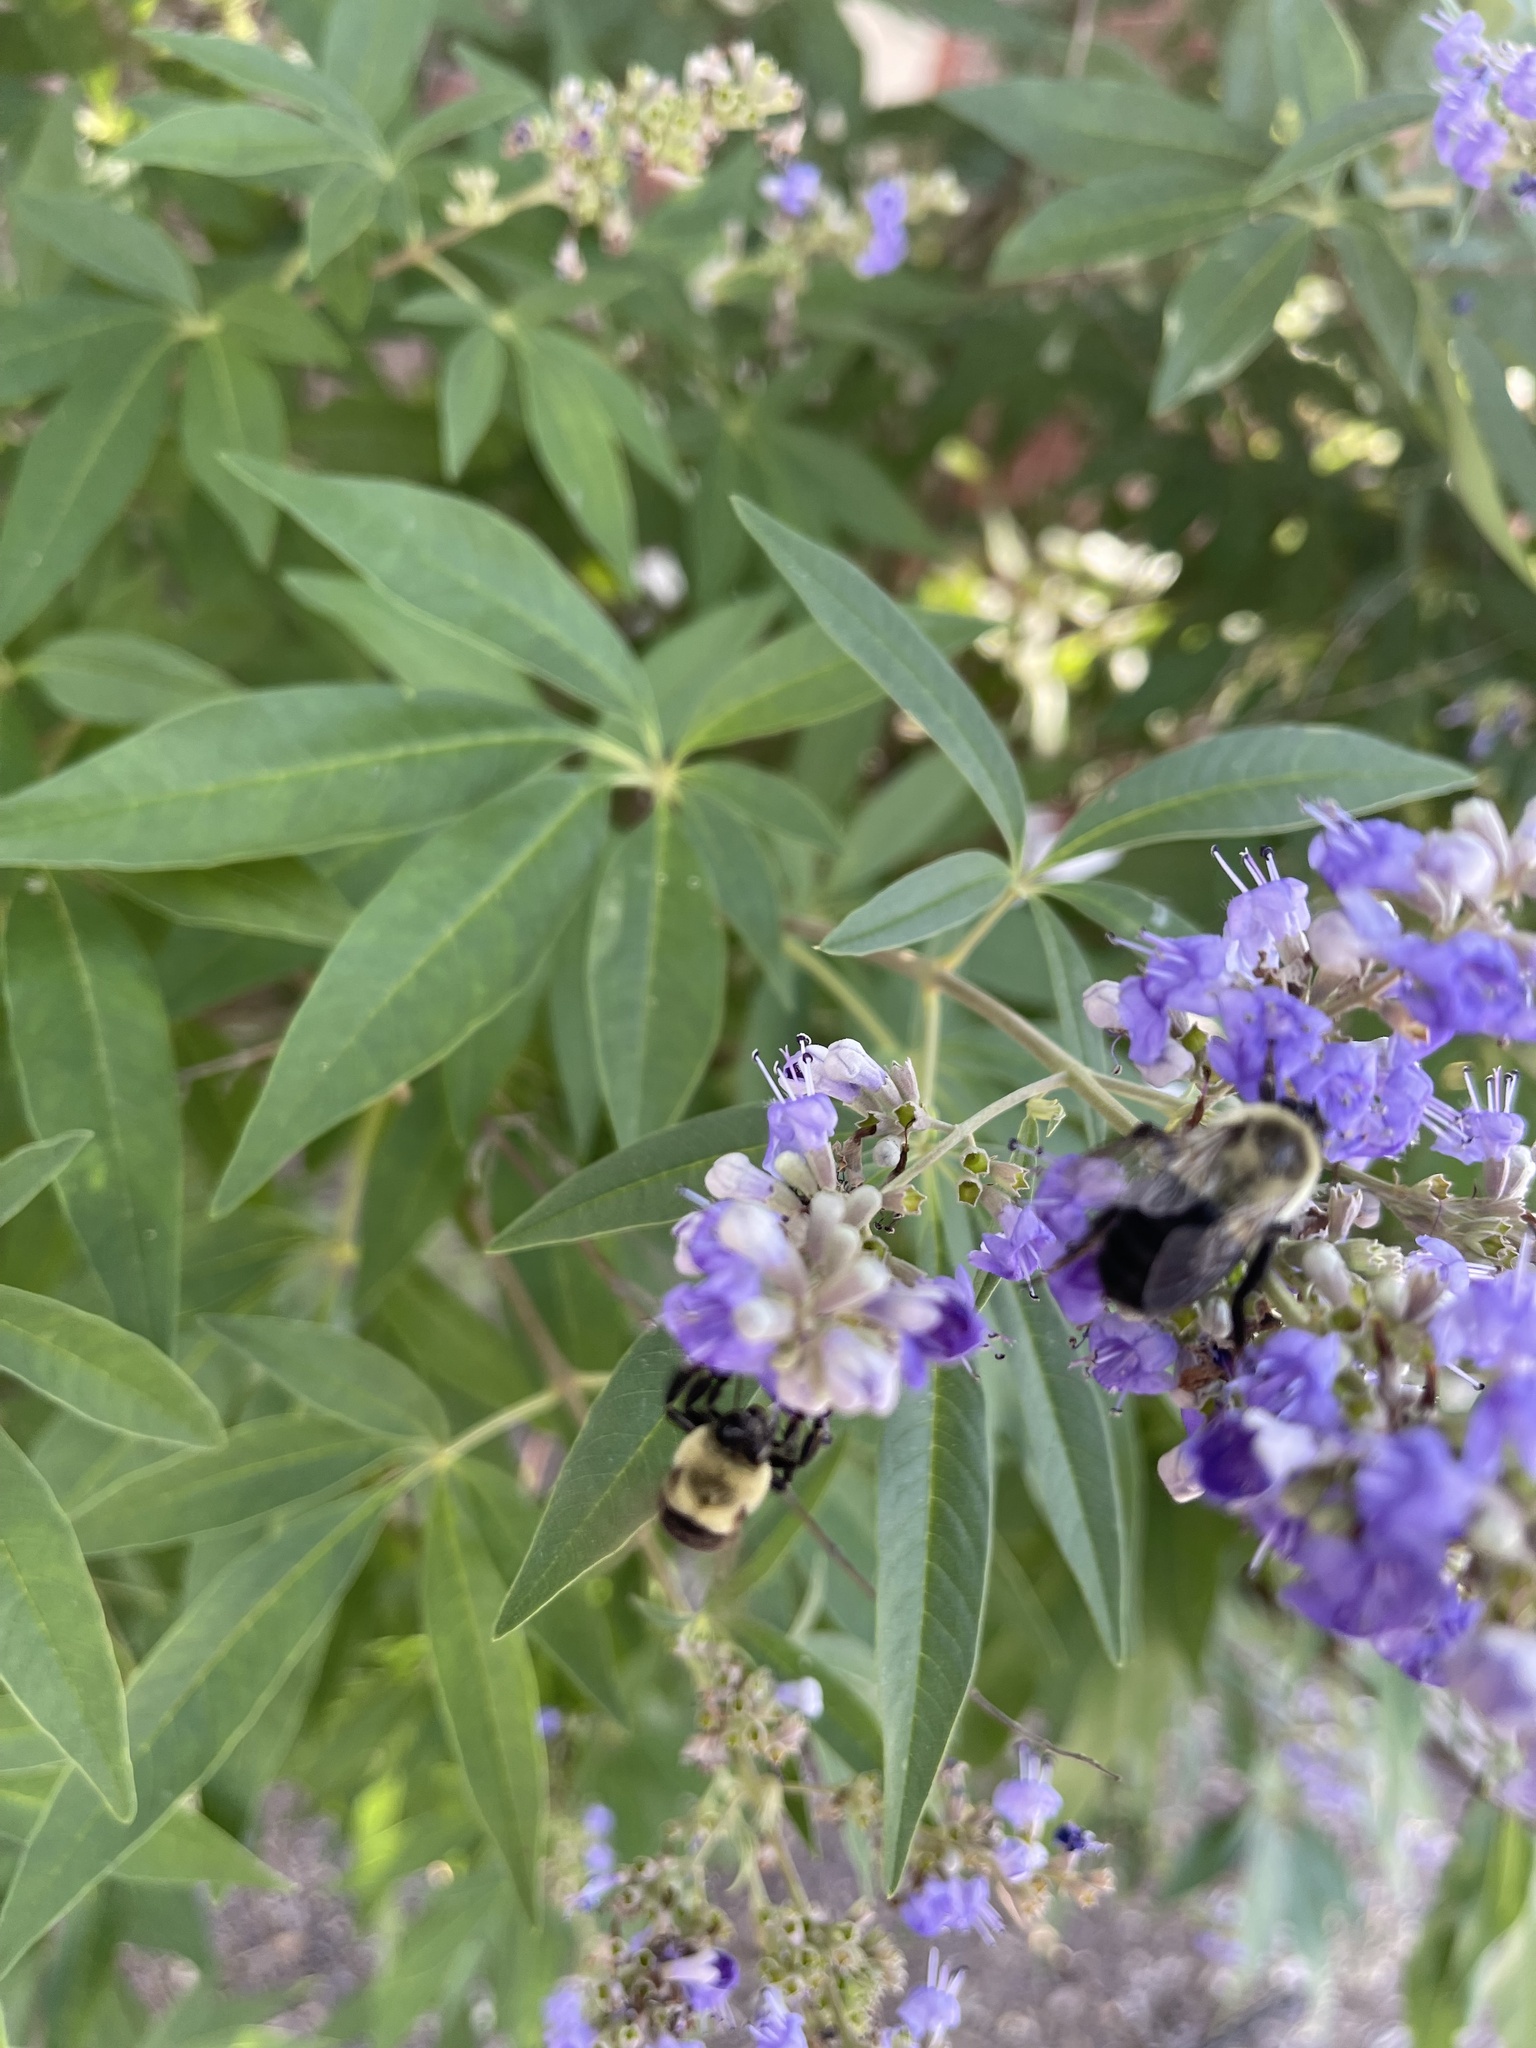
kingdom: Animalia
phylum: Arthropoda
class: Insecta
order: Hymenoptera
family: Apidae
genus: Bombus
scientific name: Bombus impatiens
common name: Common eastern bumble bee
